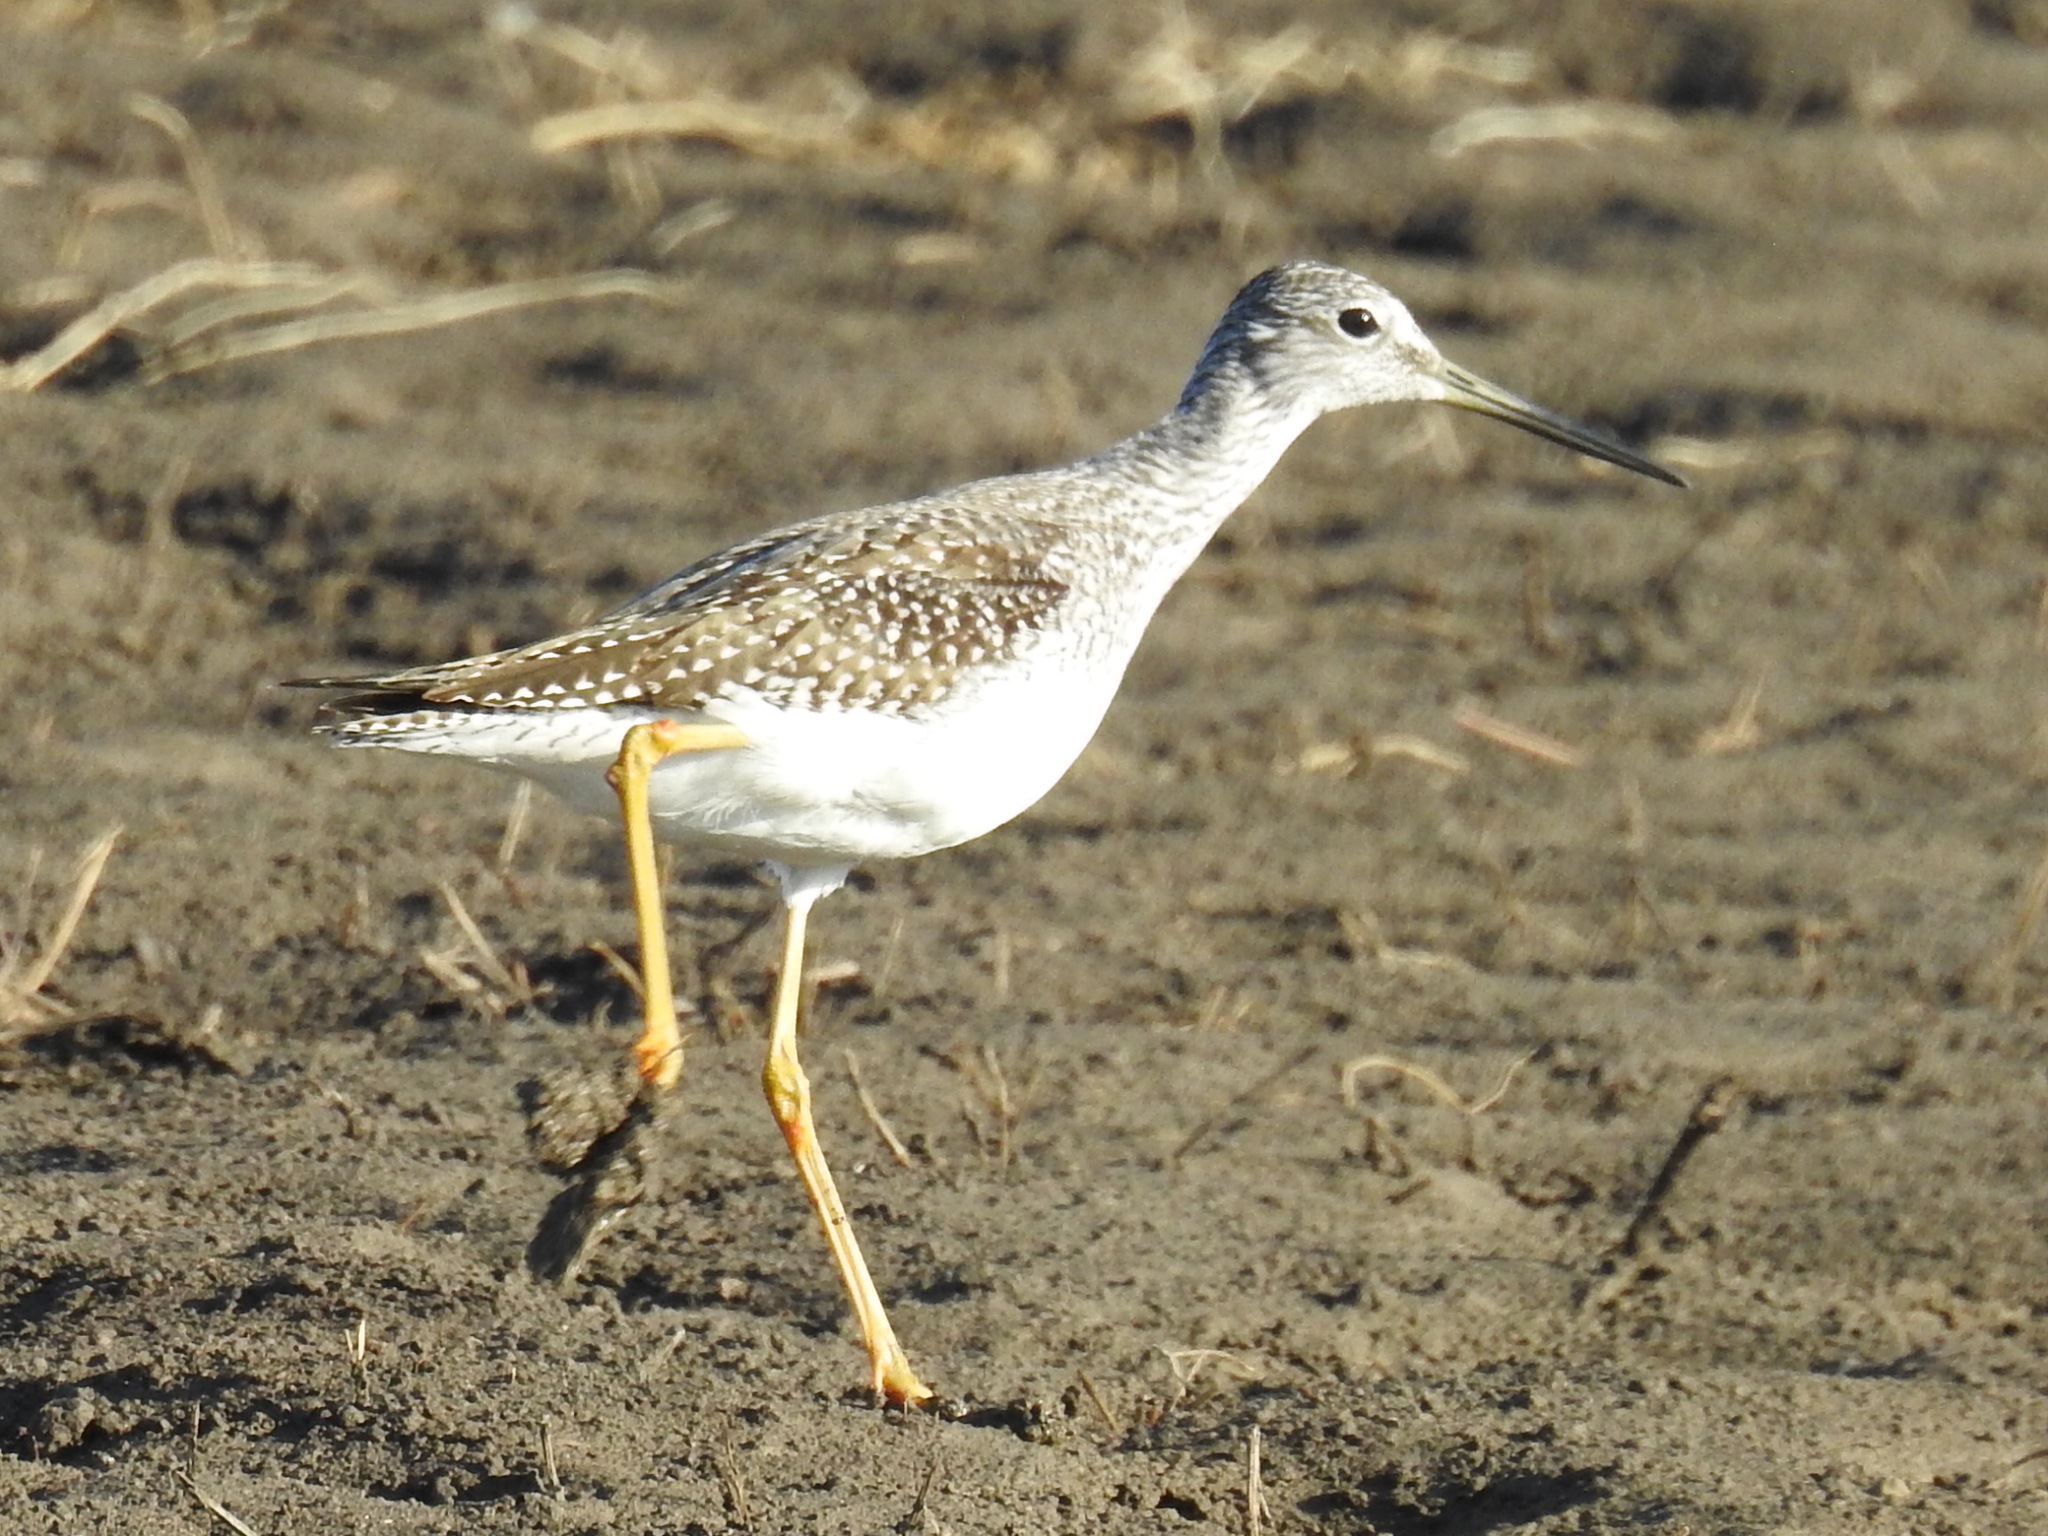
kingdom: Animalia
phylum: Chordata
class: Aves
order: Charadriiformes
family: Scolopacidae
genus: Tringa
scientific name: Tringa melanoleuca
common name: Greater yellowlegs
